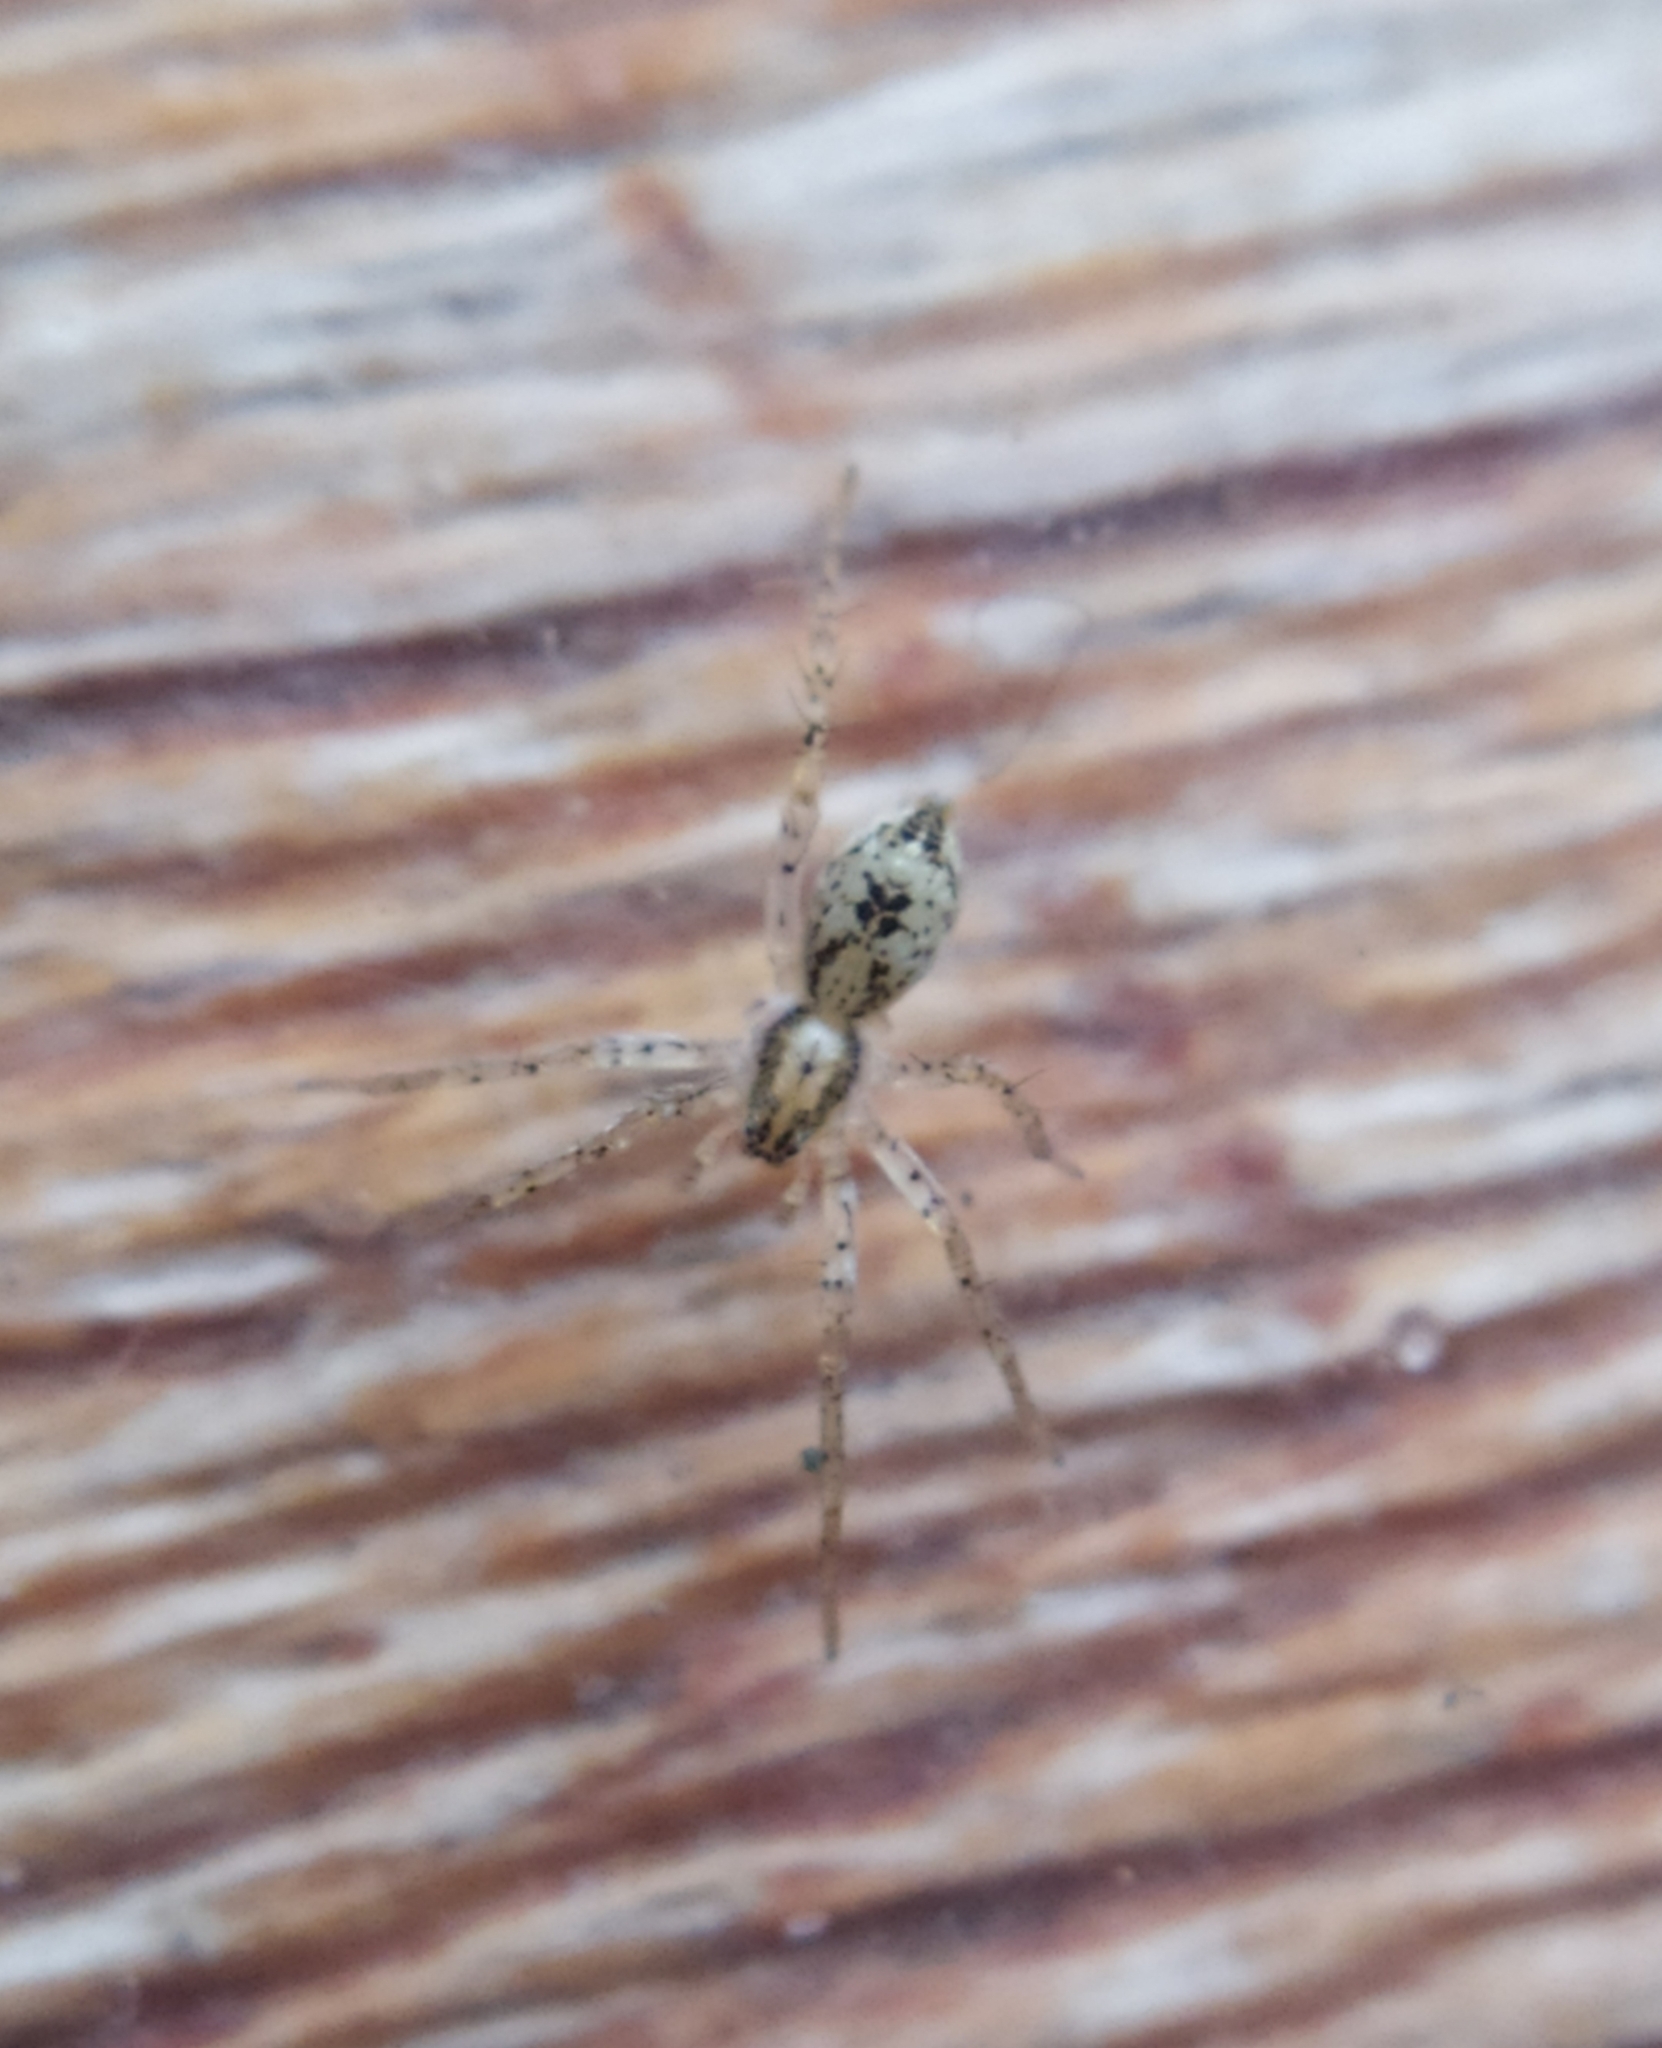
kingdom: Animalia
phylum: Arthropoda
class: Arachnida
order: Araneae
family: Anyphaenidae
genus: Anyphaena
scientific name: Anyphaena accentuata
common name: Buzzing spider
